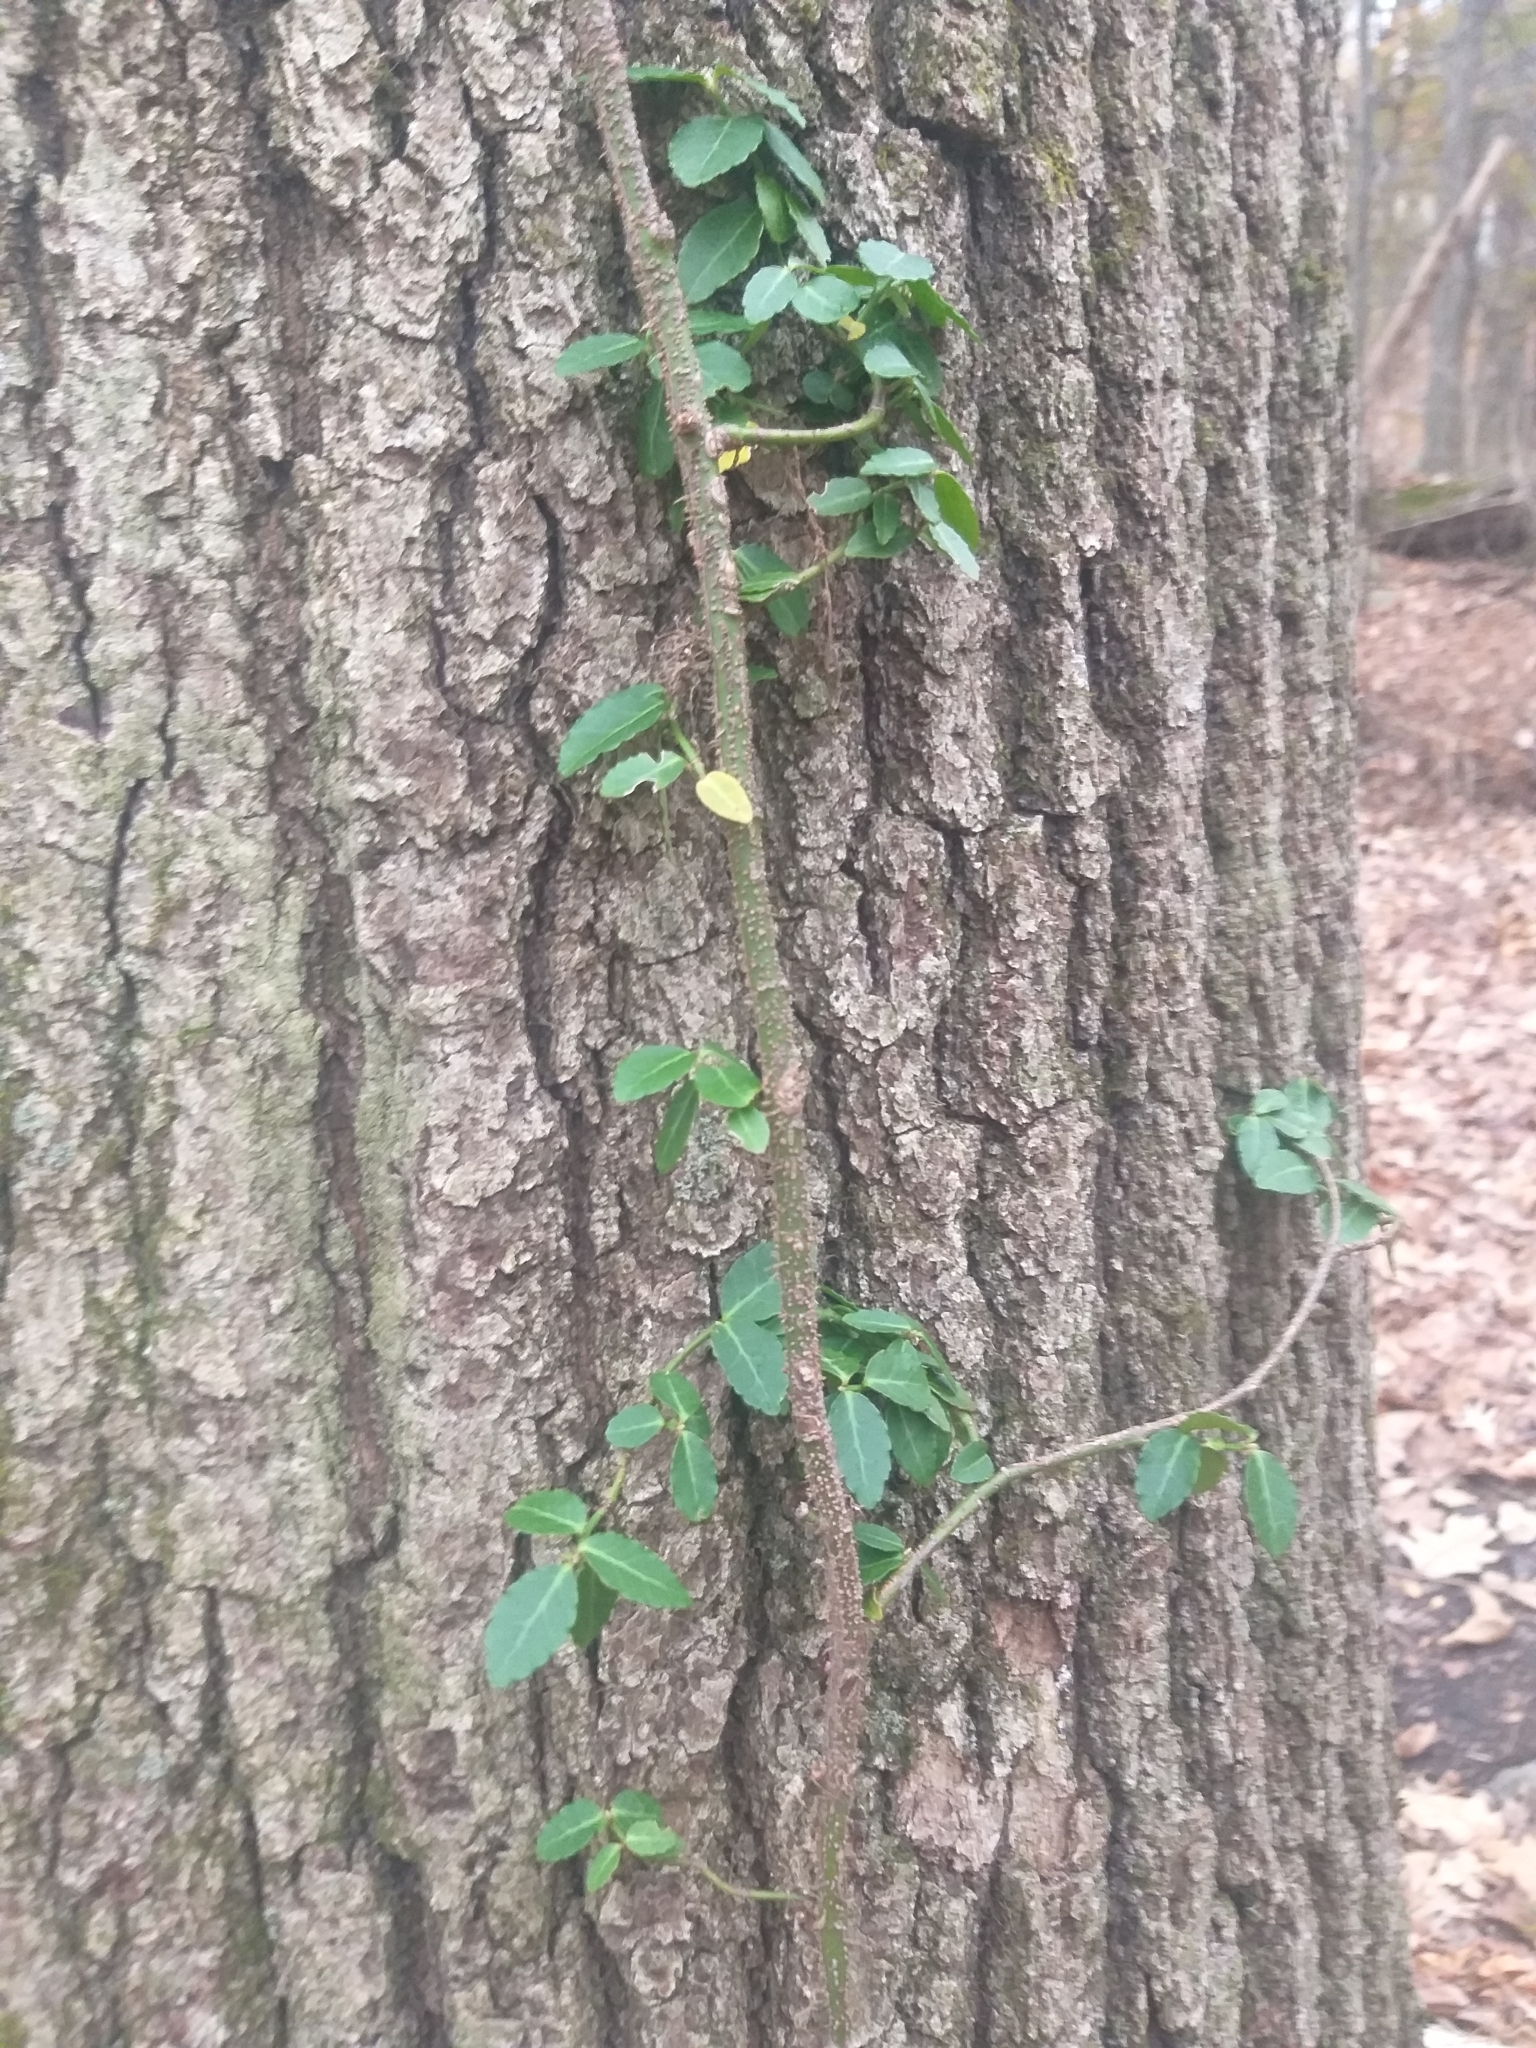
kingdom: Plantae
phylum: Tracheophyta
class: Magnoliopsida
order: Celastrales
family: Celastraceae
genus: Euonymus
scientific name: Euonymus fortunei
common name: Climbing euonymus
